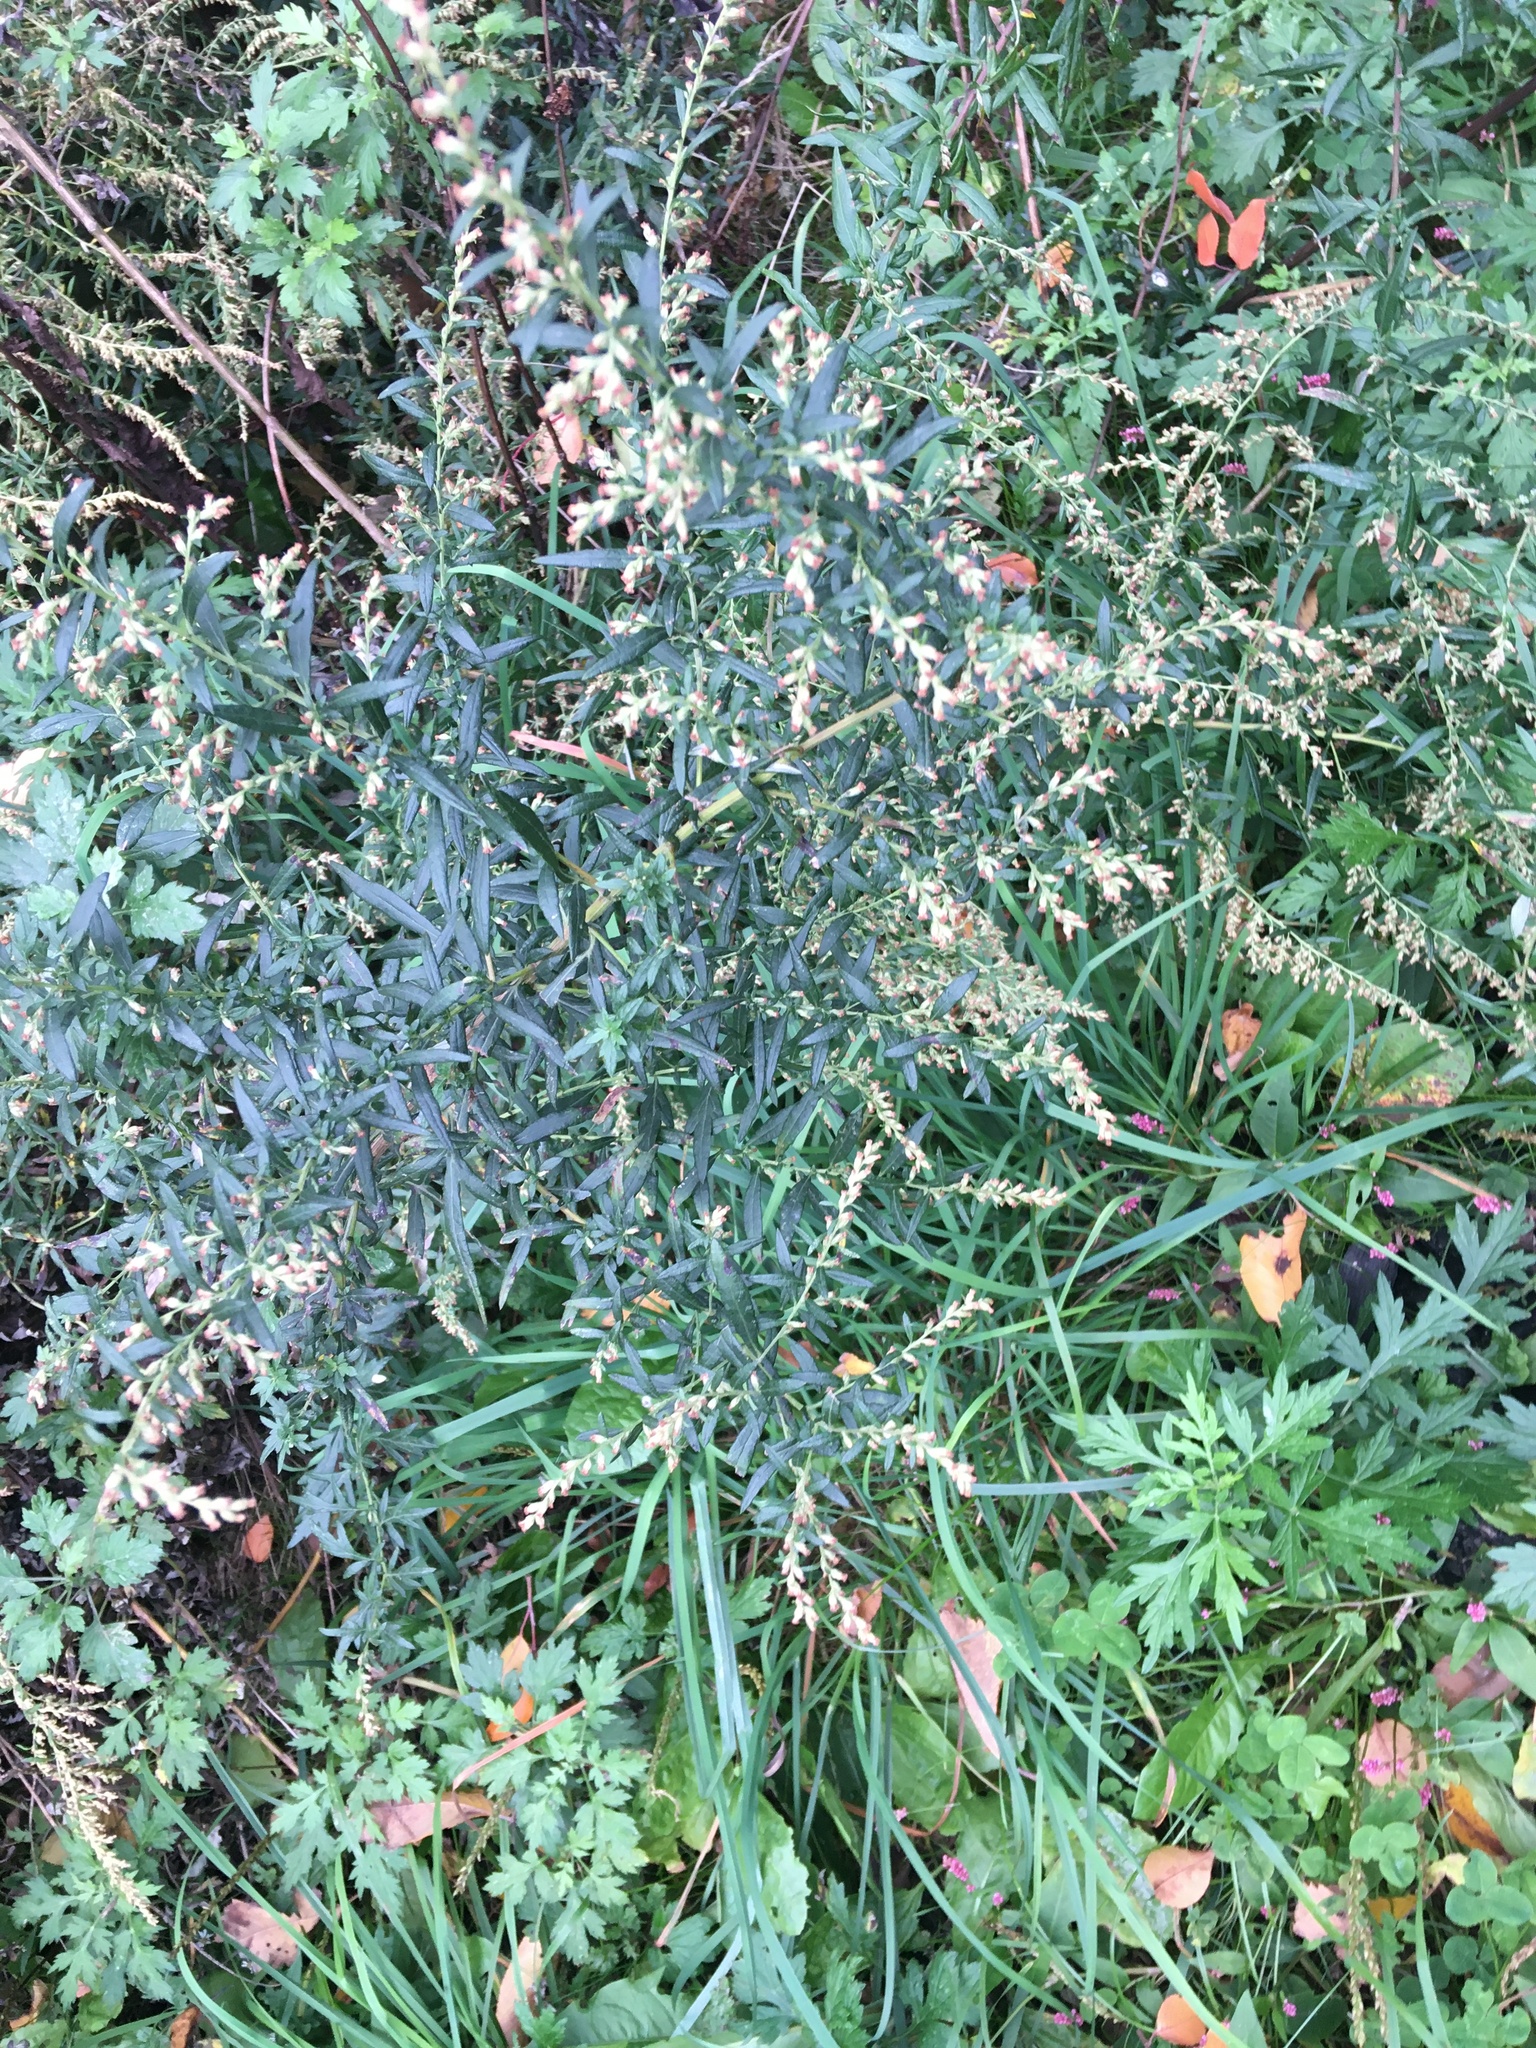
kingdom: Plantae
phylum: Tracheophyta
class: Magnoliopsida
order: Asterales
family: Asteraceae
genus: Artemisia
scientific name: Artemisia vulgaris
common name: Mugwort
